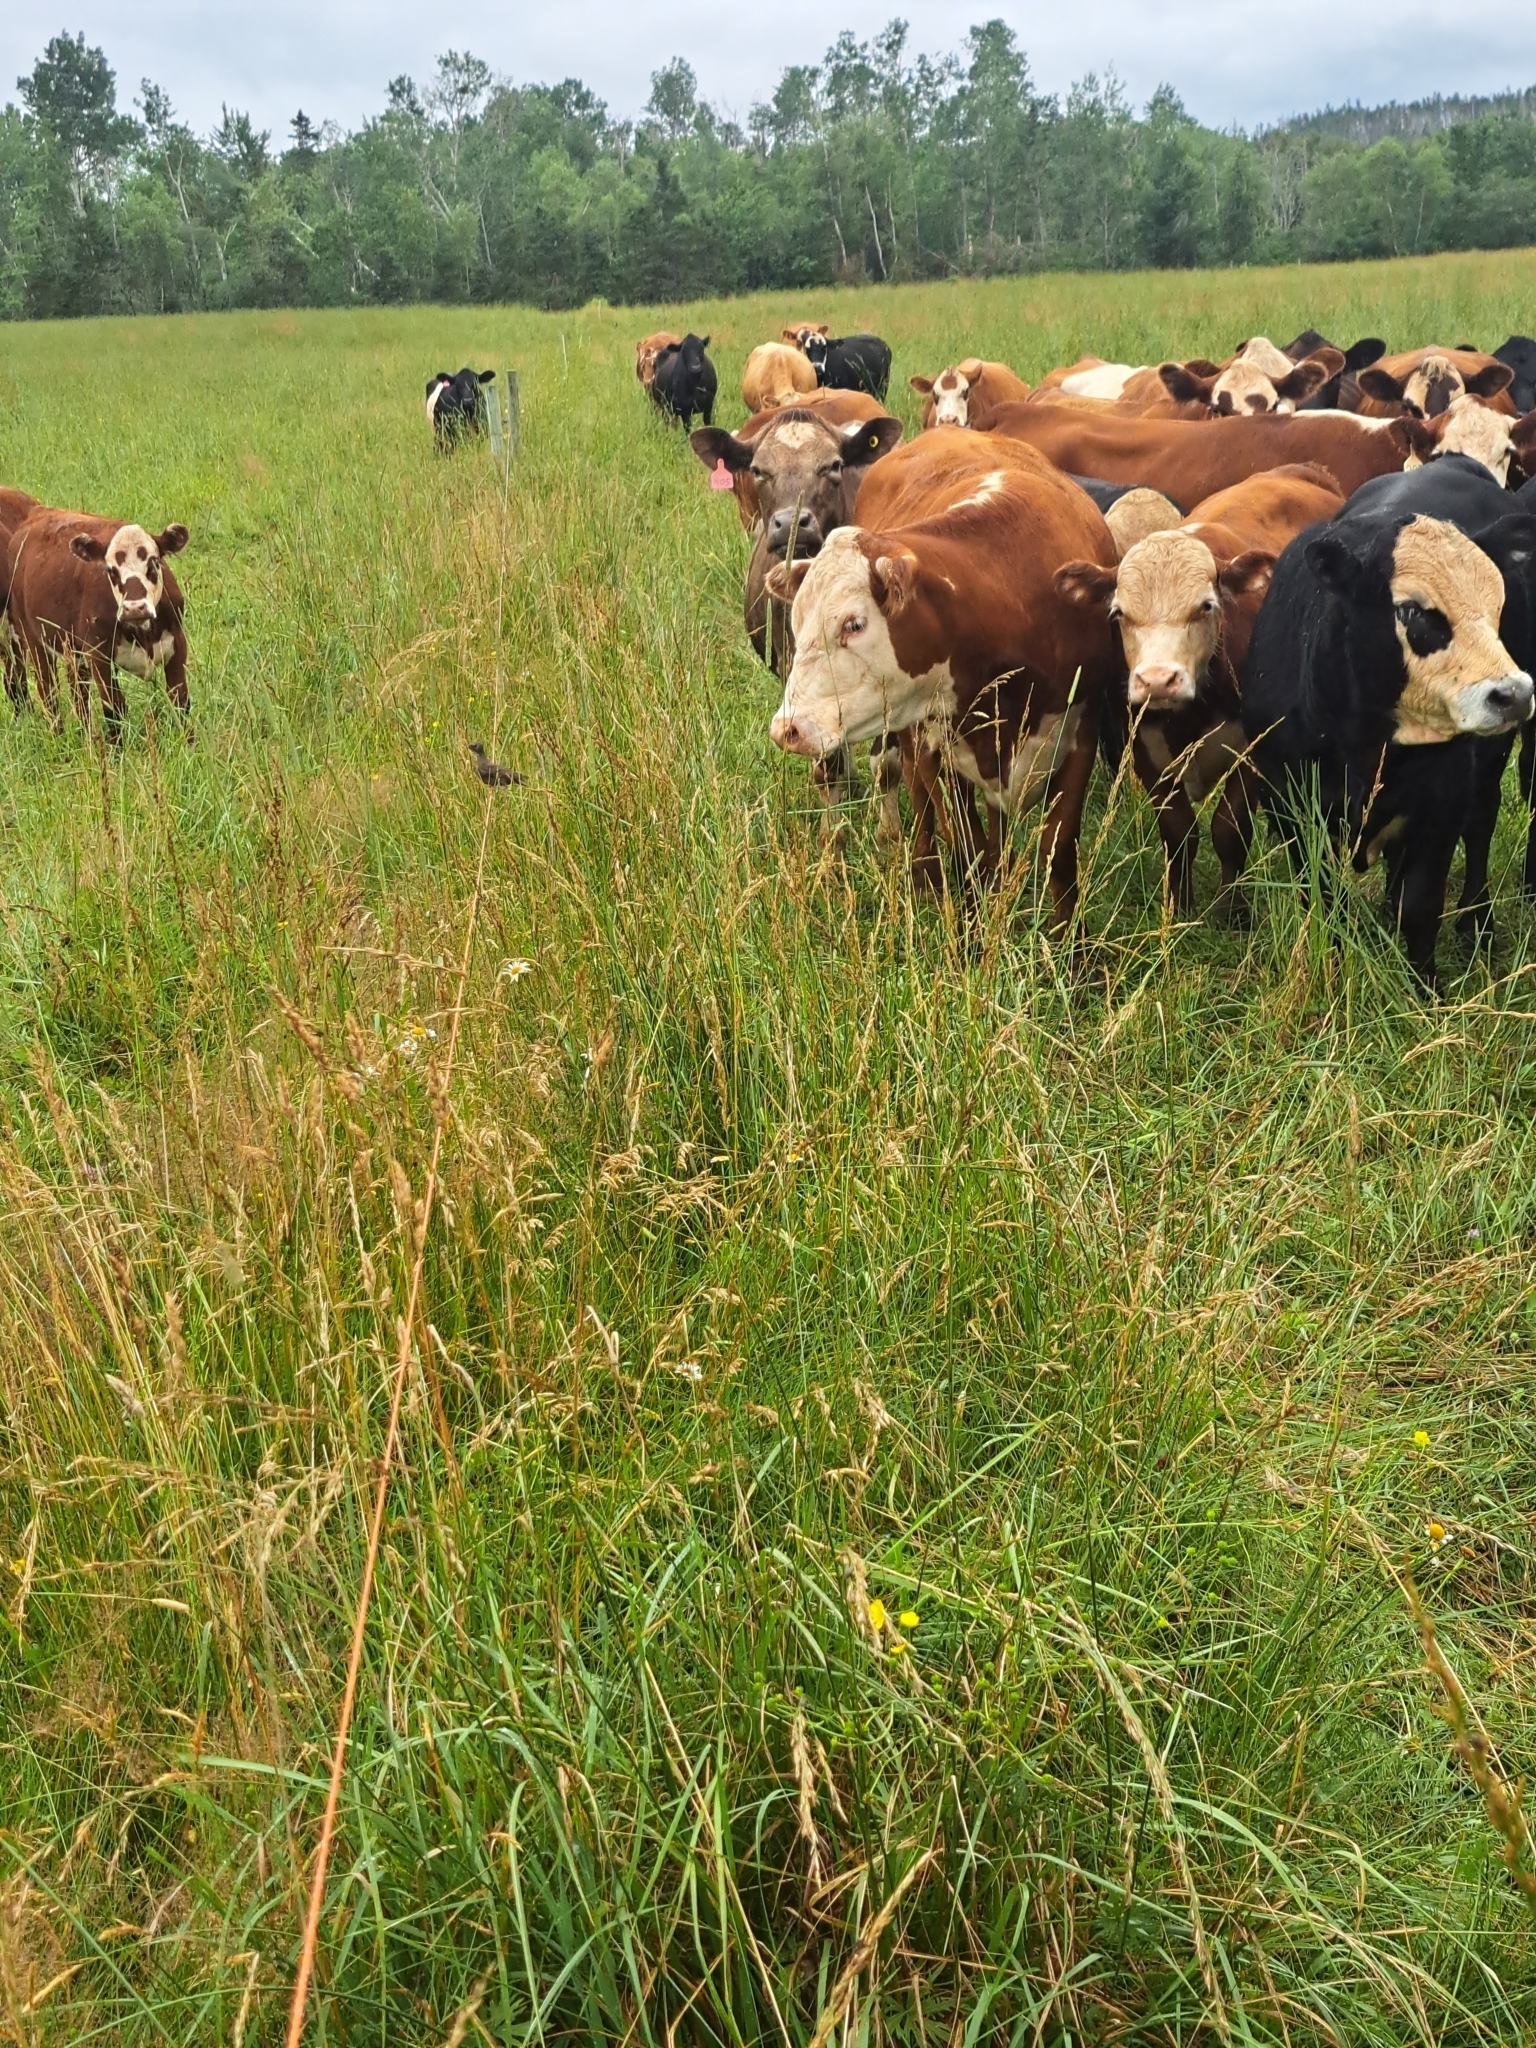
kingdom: Animalia
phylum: Chordata
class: Aves
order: Passeriformes
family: Icteridae
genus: Molothrus
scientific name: Molothrus ater
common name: Brown-headed cowbird
